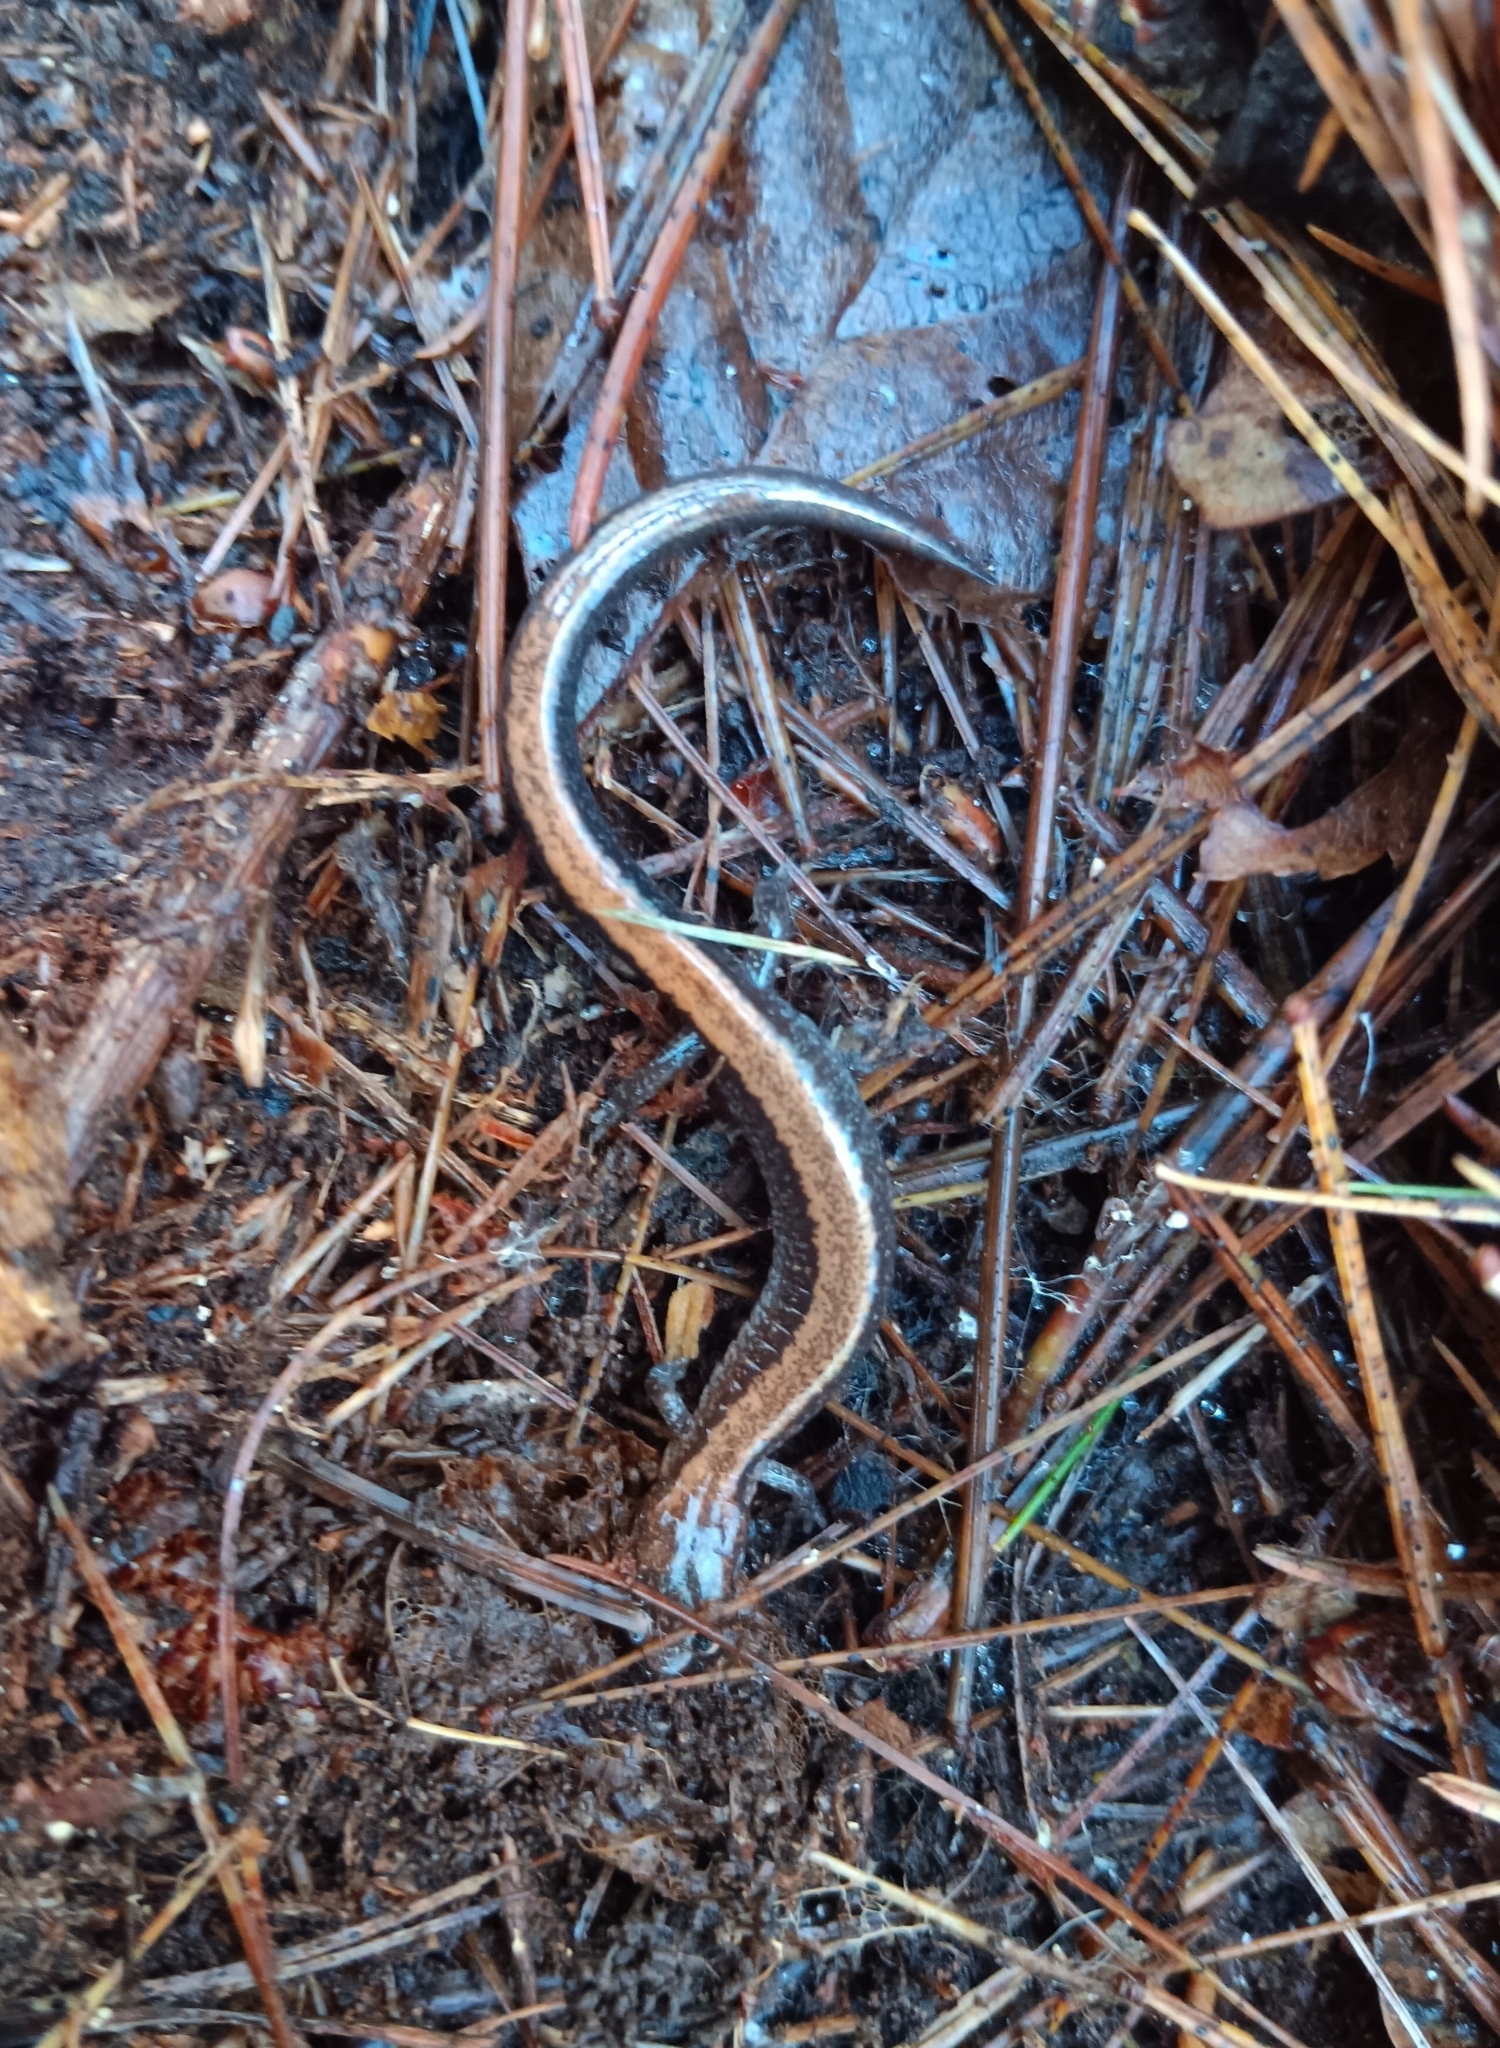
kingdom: Animalia
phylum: Chordata
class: Amphibia
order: Caudata
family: Plethodontidae
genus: Plethodon
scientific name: Plethodon cinereus
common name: Redback salamander
